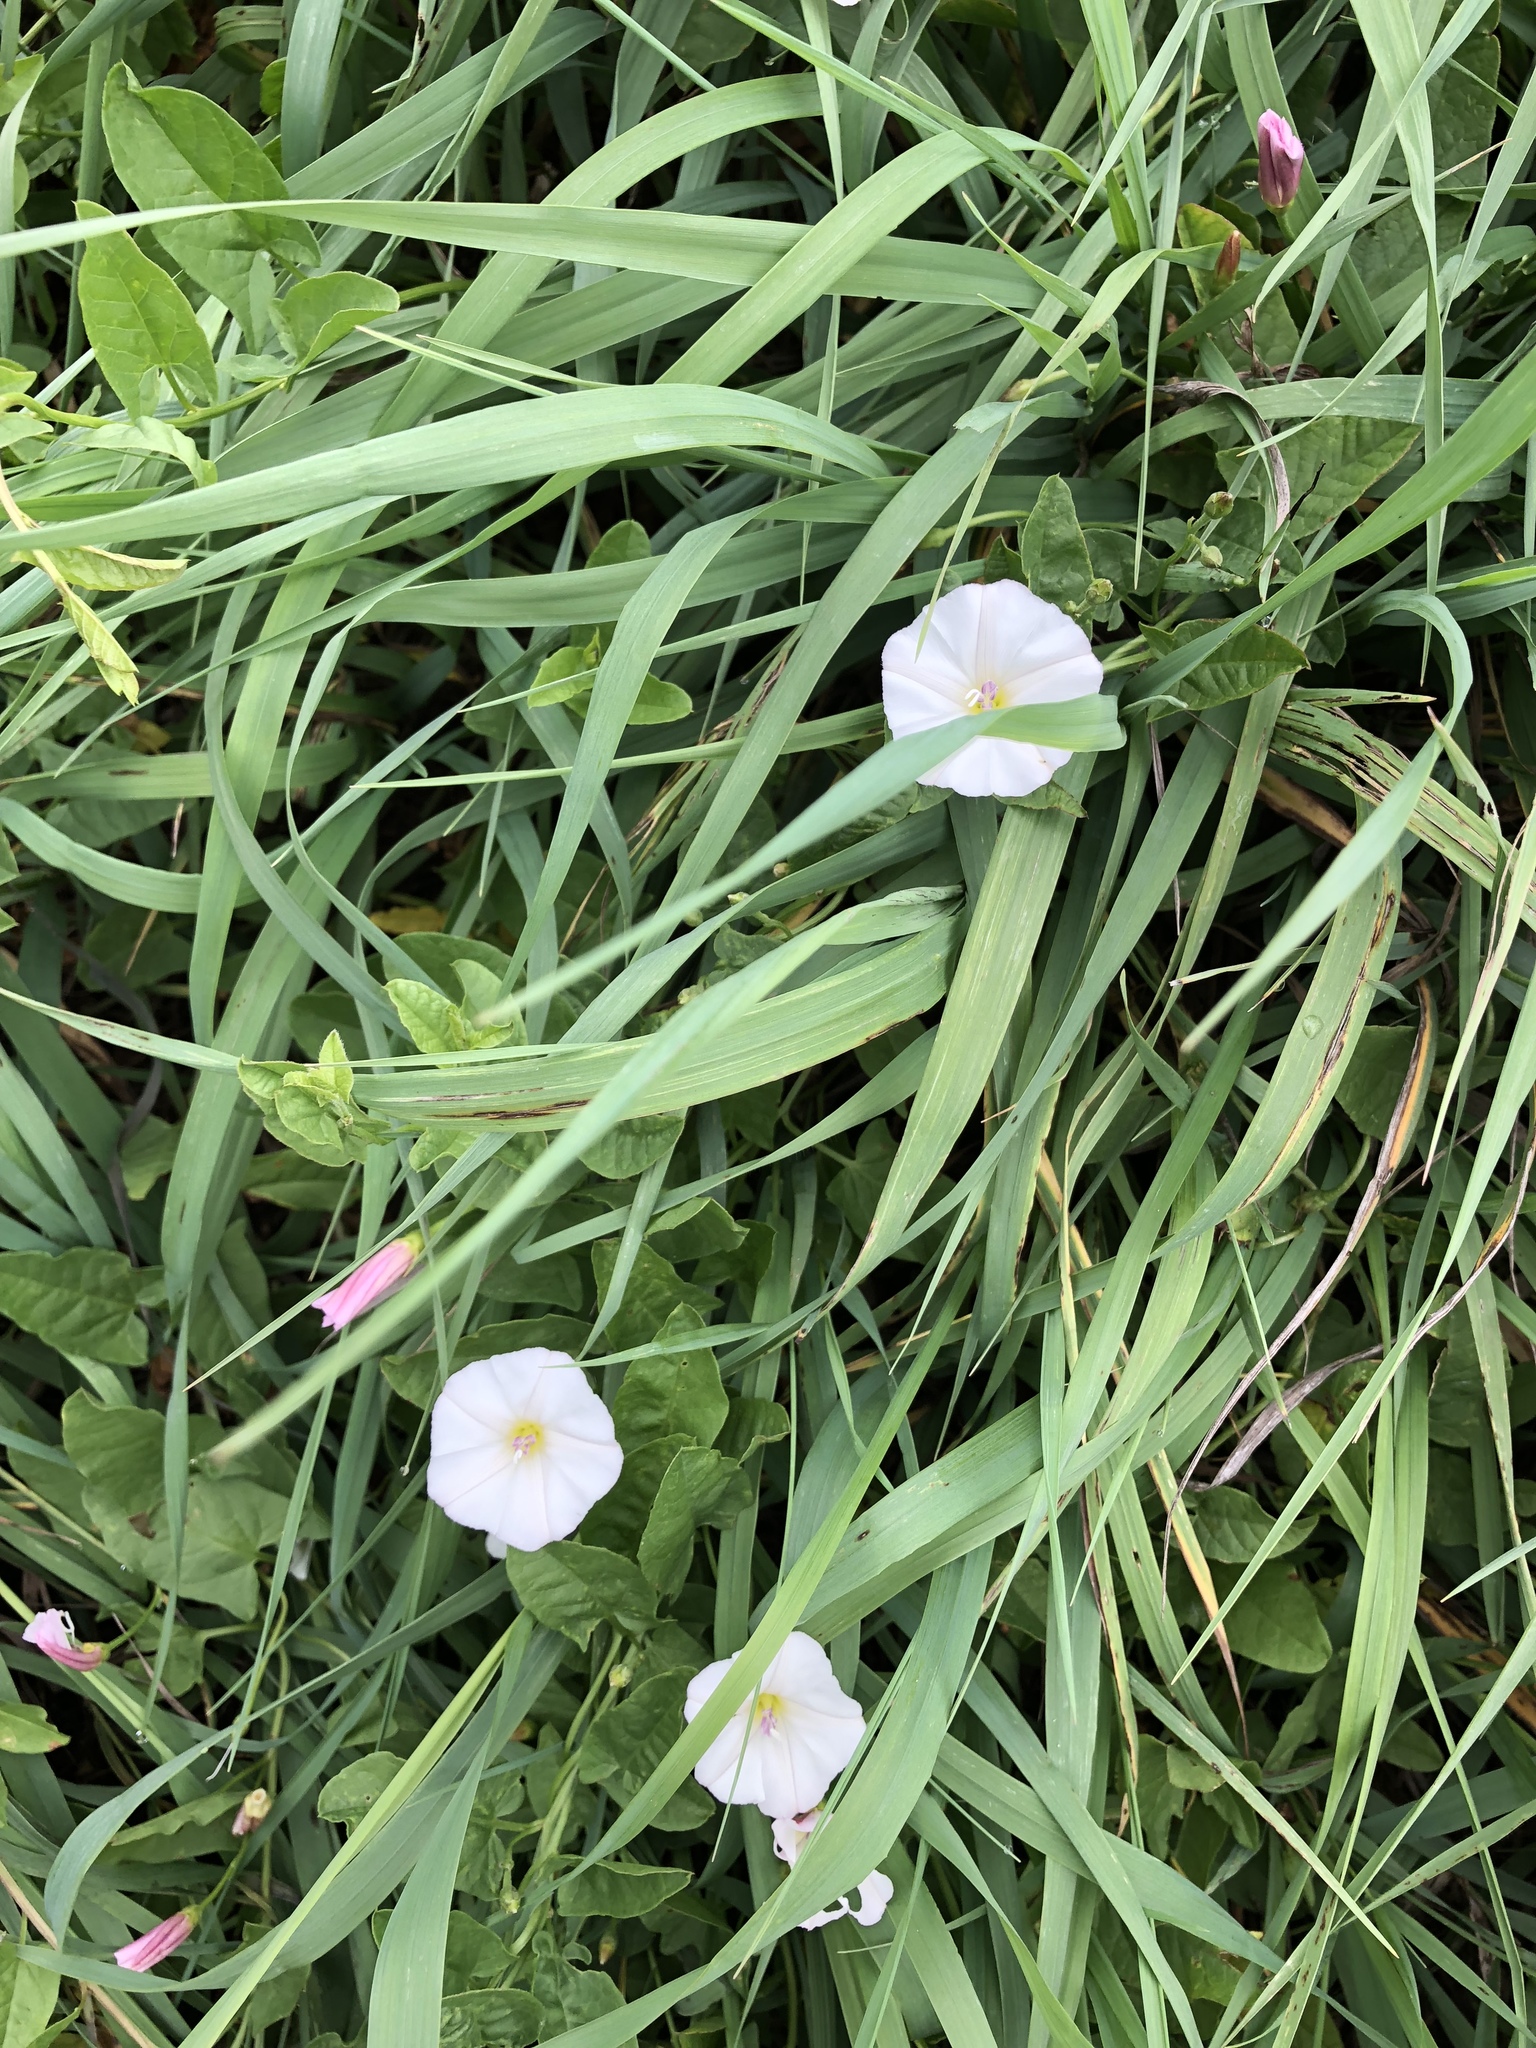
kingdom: Plantae
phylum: Tracheophyta
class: Magnoliopsida
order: Solanales
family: Convolvulaceae
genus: Convolvulus
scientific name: Convolvulus arvensis
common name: Field bindweed
